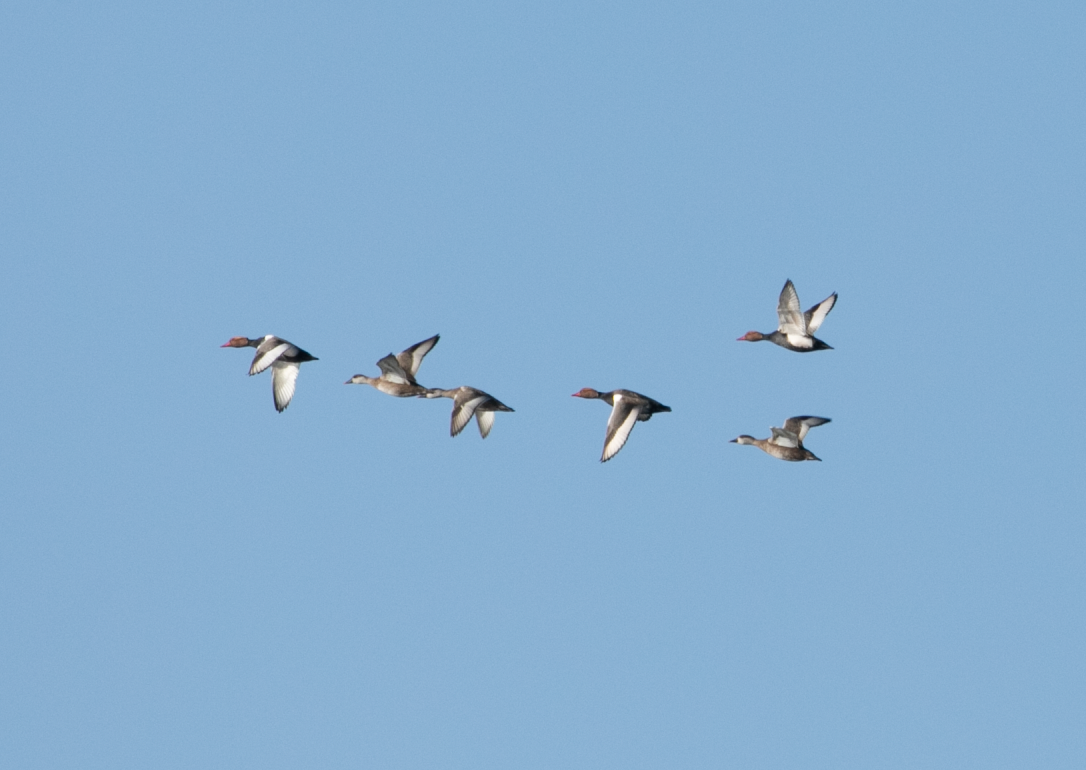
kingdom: Animalia
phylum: Chordata
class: Aves
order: Anseriformes
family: Anatidae
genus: Netta
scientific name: Netta rufina
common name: Red-crested pochard
